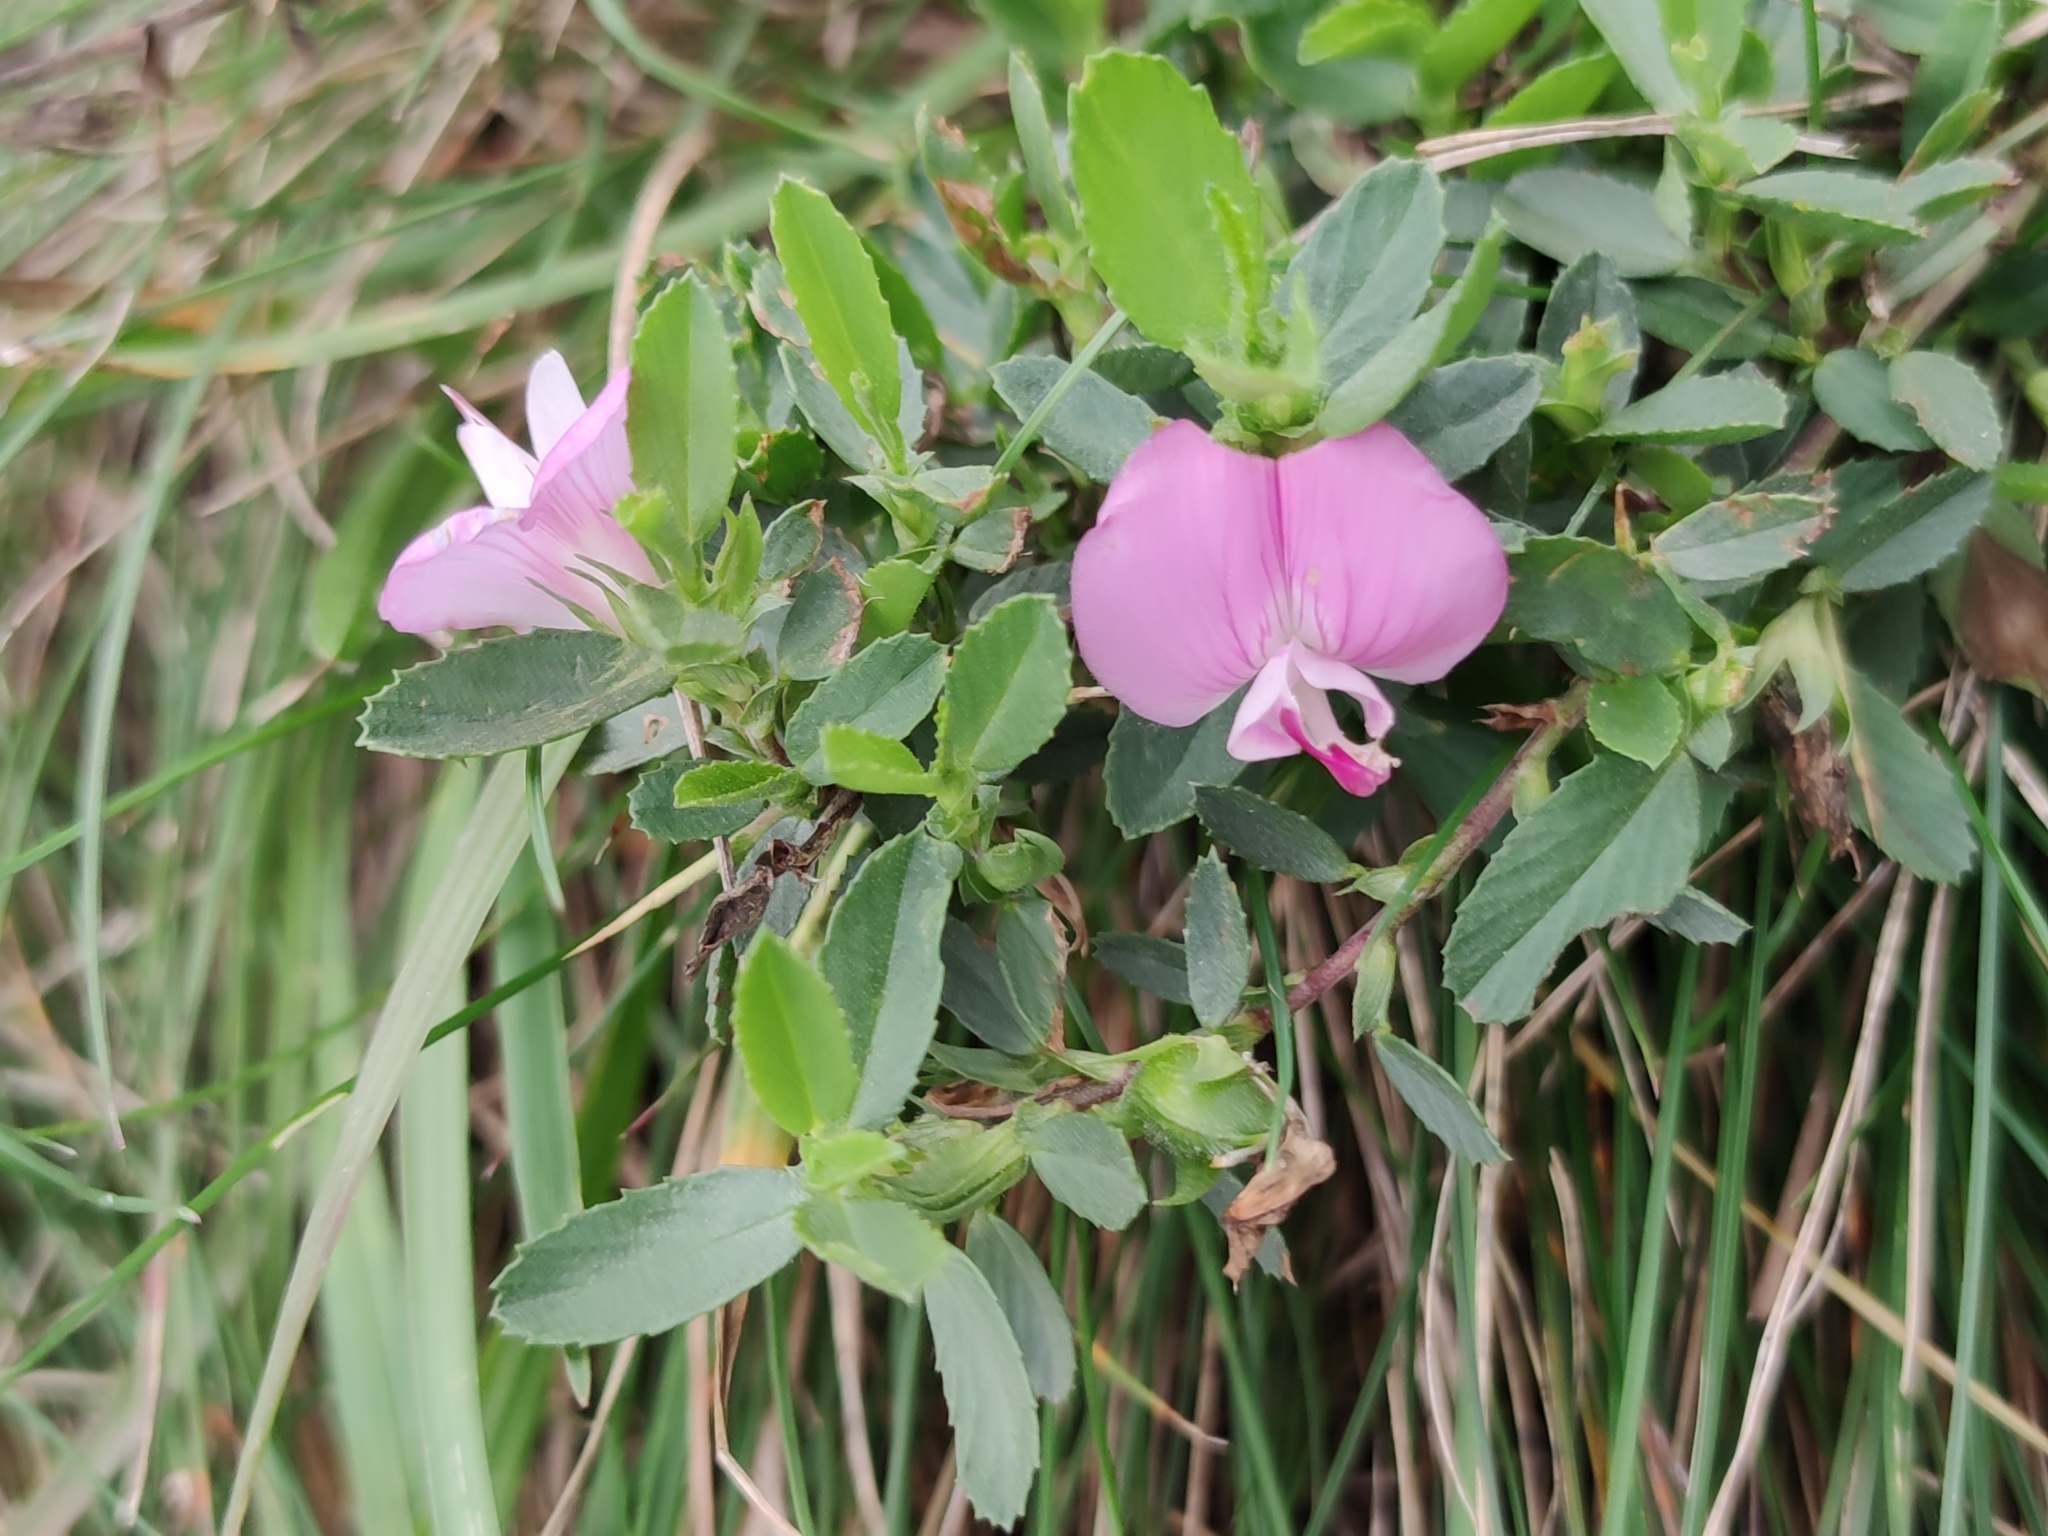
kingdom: Plantae
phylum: Tracheophyta
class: Magnoliopsida
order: Fabales
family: Fabaceae
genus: Ononis
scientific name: Ononis spinosa
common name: Spiny restharrow
